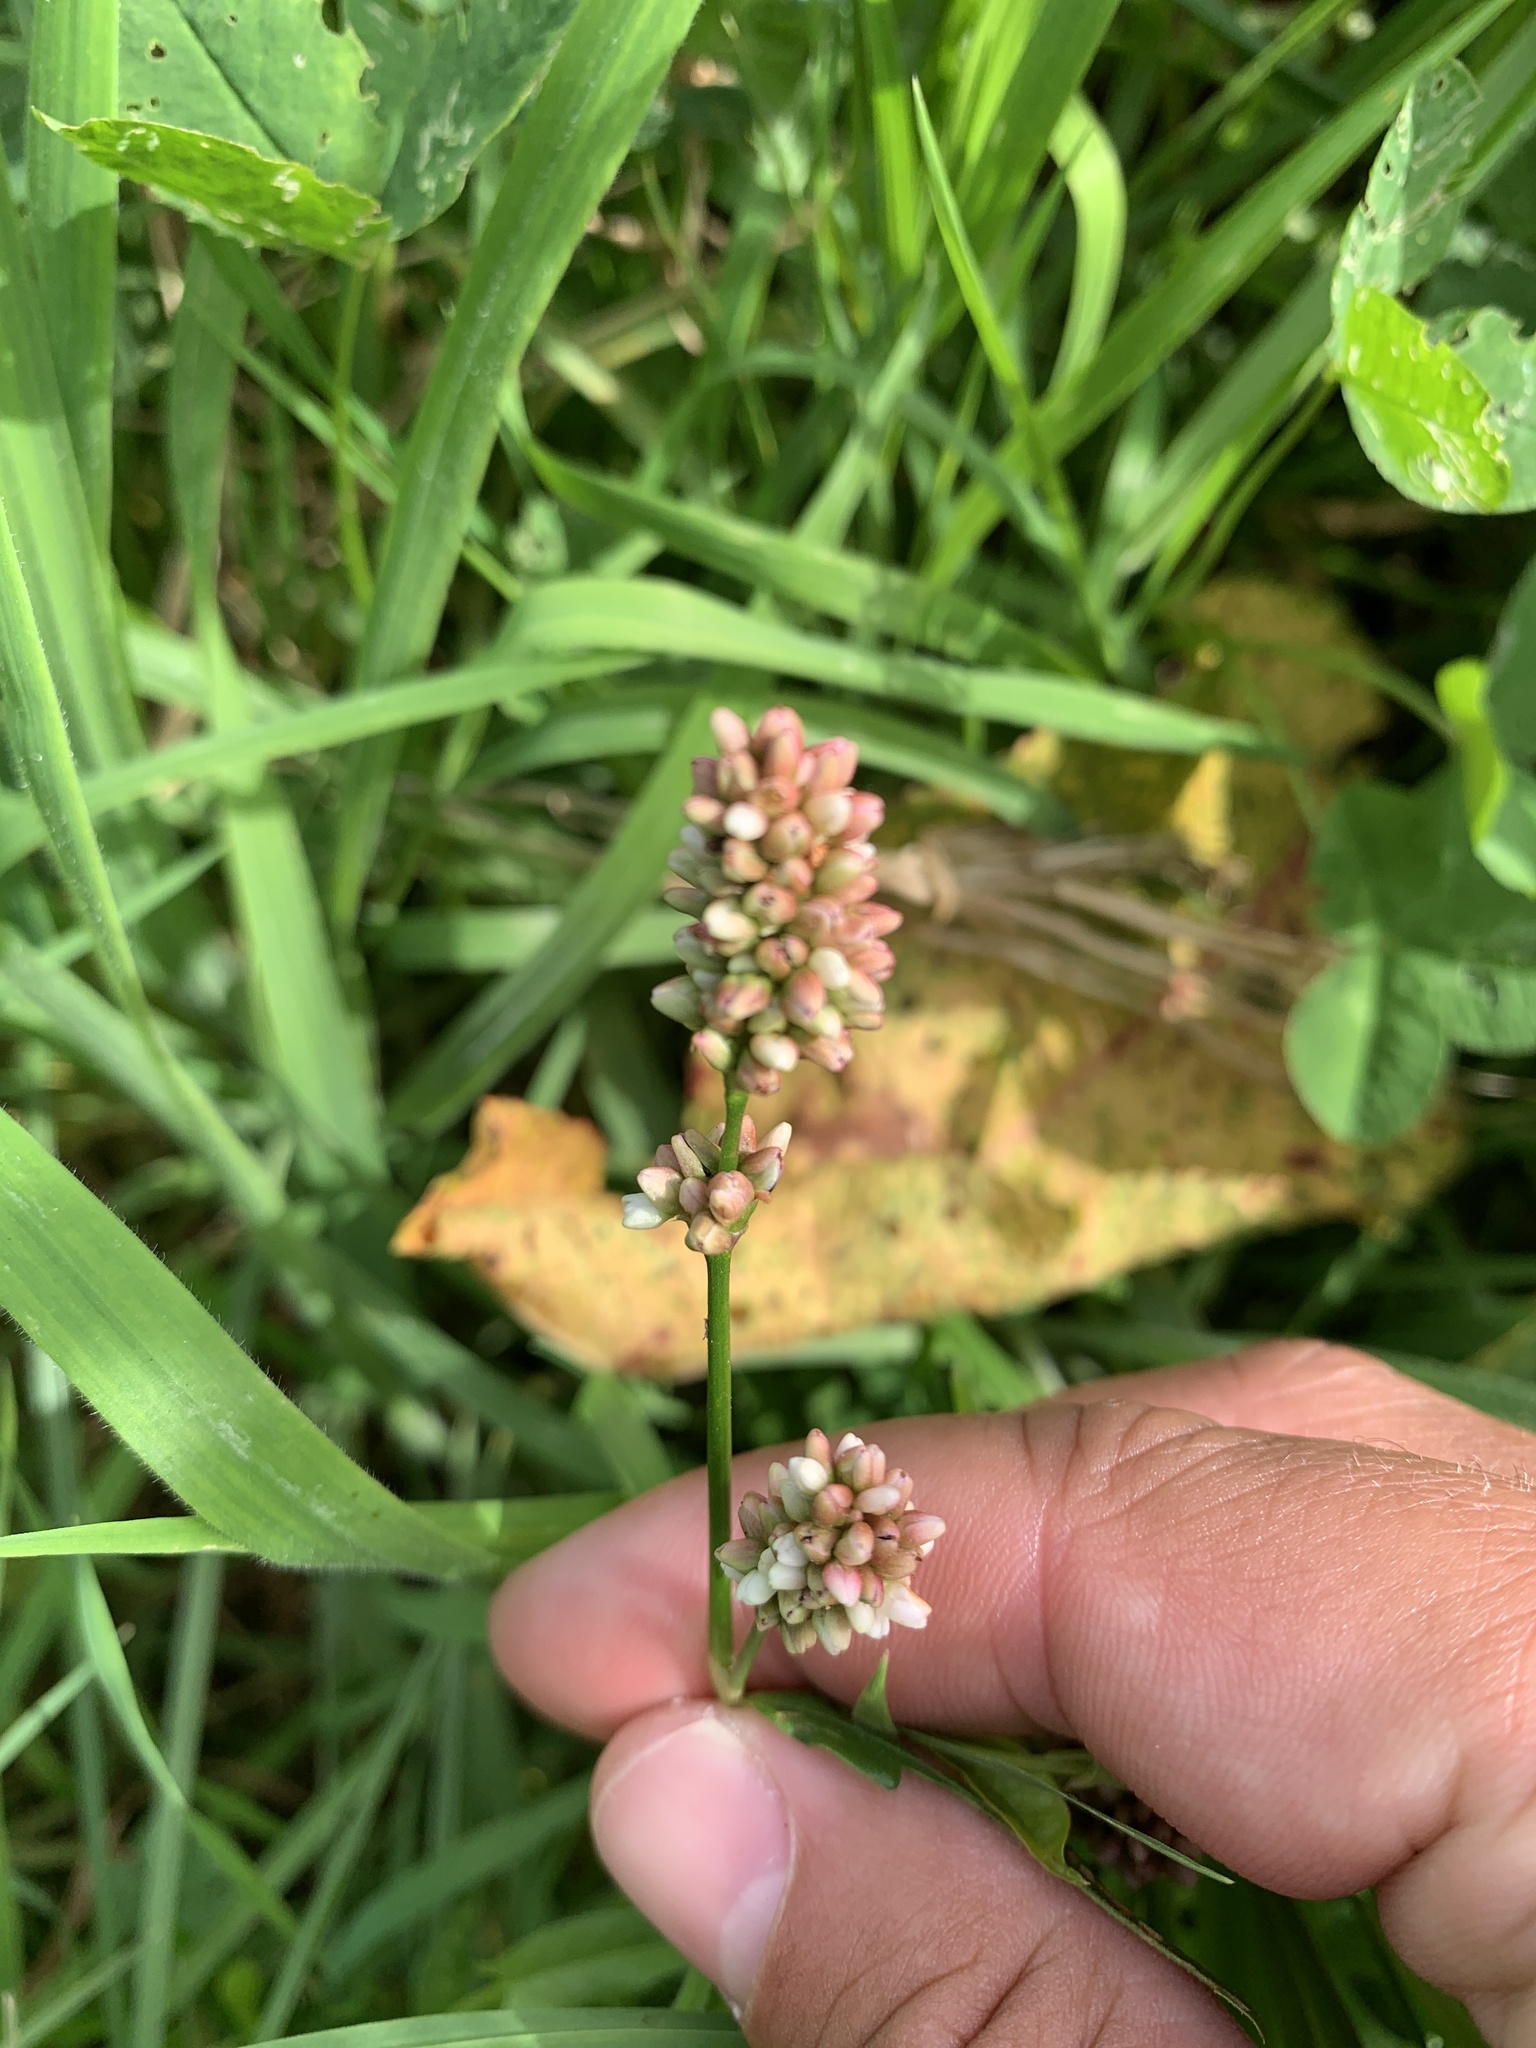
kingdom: Plantae
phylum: Tracheophyta
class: Magnoliopsida
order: Caryophyllales
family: Polygonaceae
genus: Persicaria
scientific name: Persicaria maculosa
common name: Redshank
